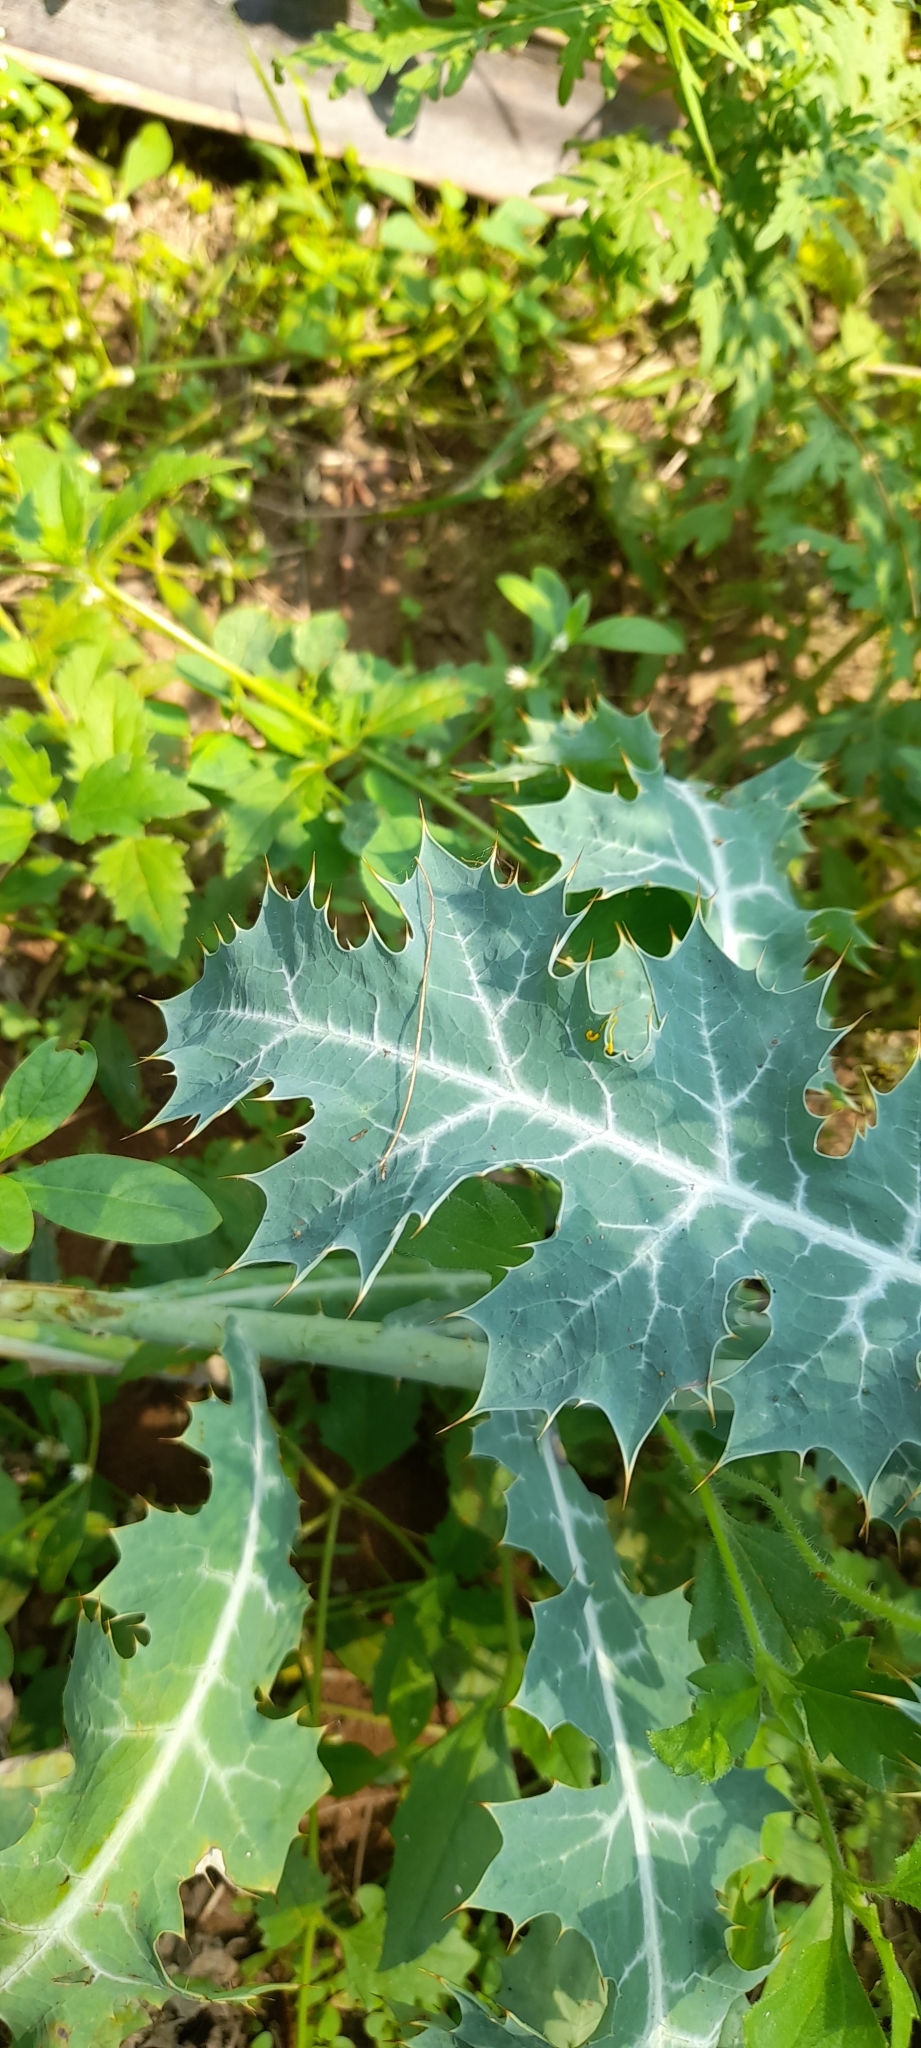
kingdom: Plantae
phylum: Tracheophyta
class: Magnoliopsida
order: Ranunculales
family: Papaveraceae
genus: Argemone
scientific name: Argemone mexicana
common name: Mexican poppy
